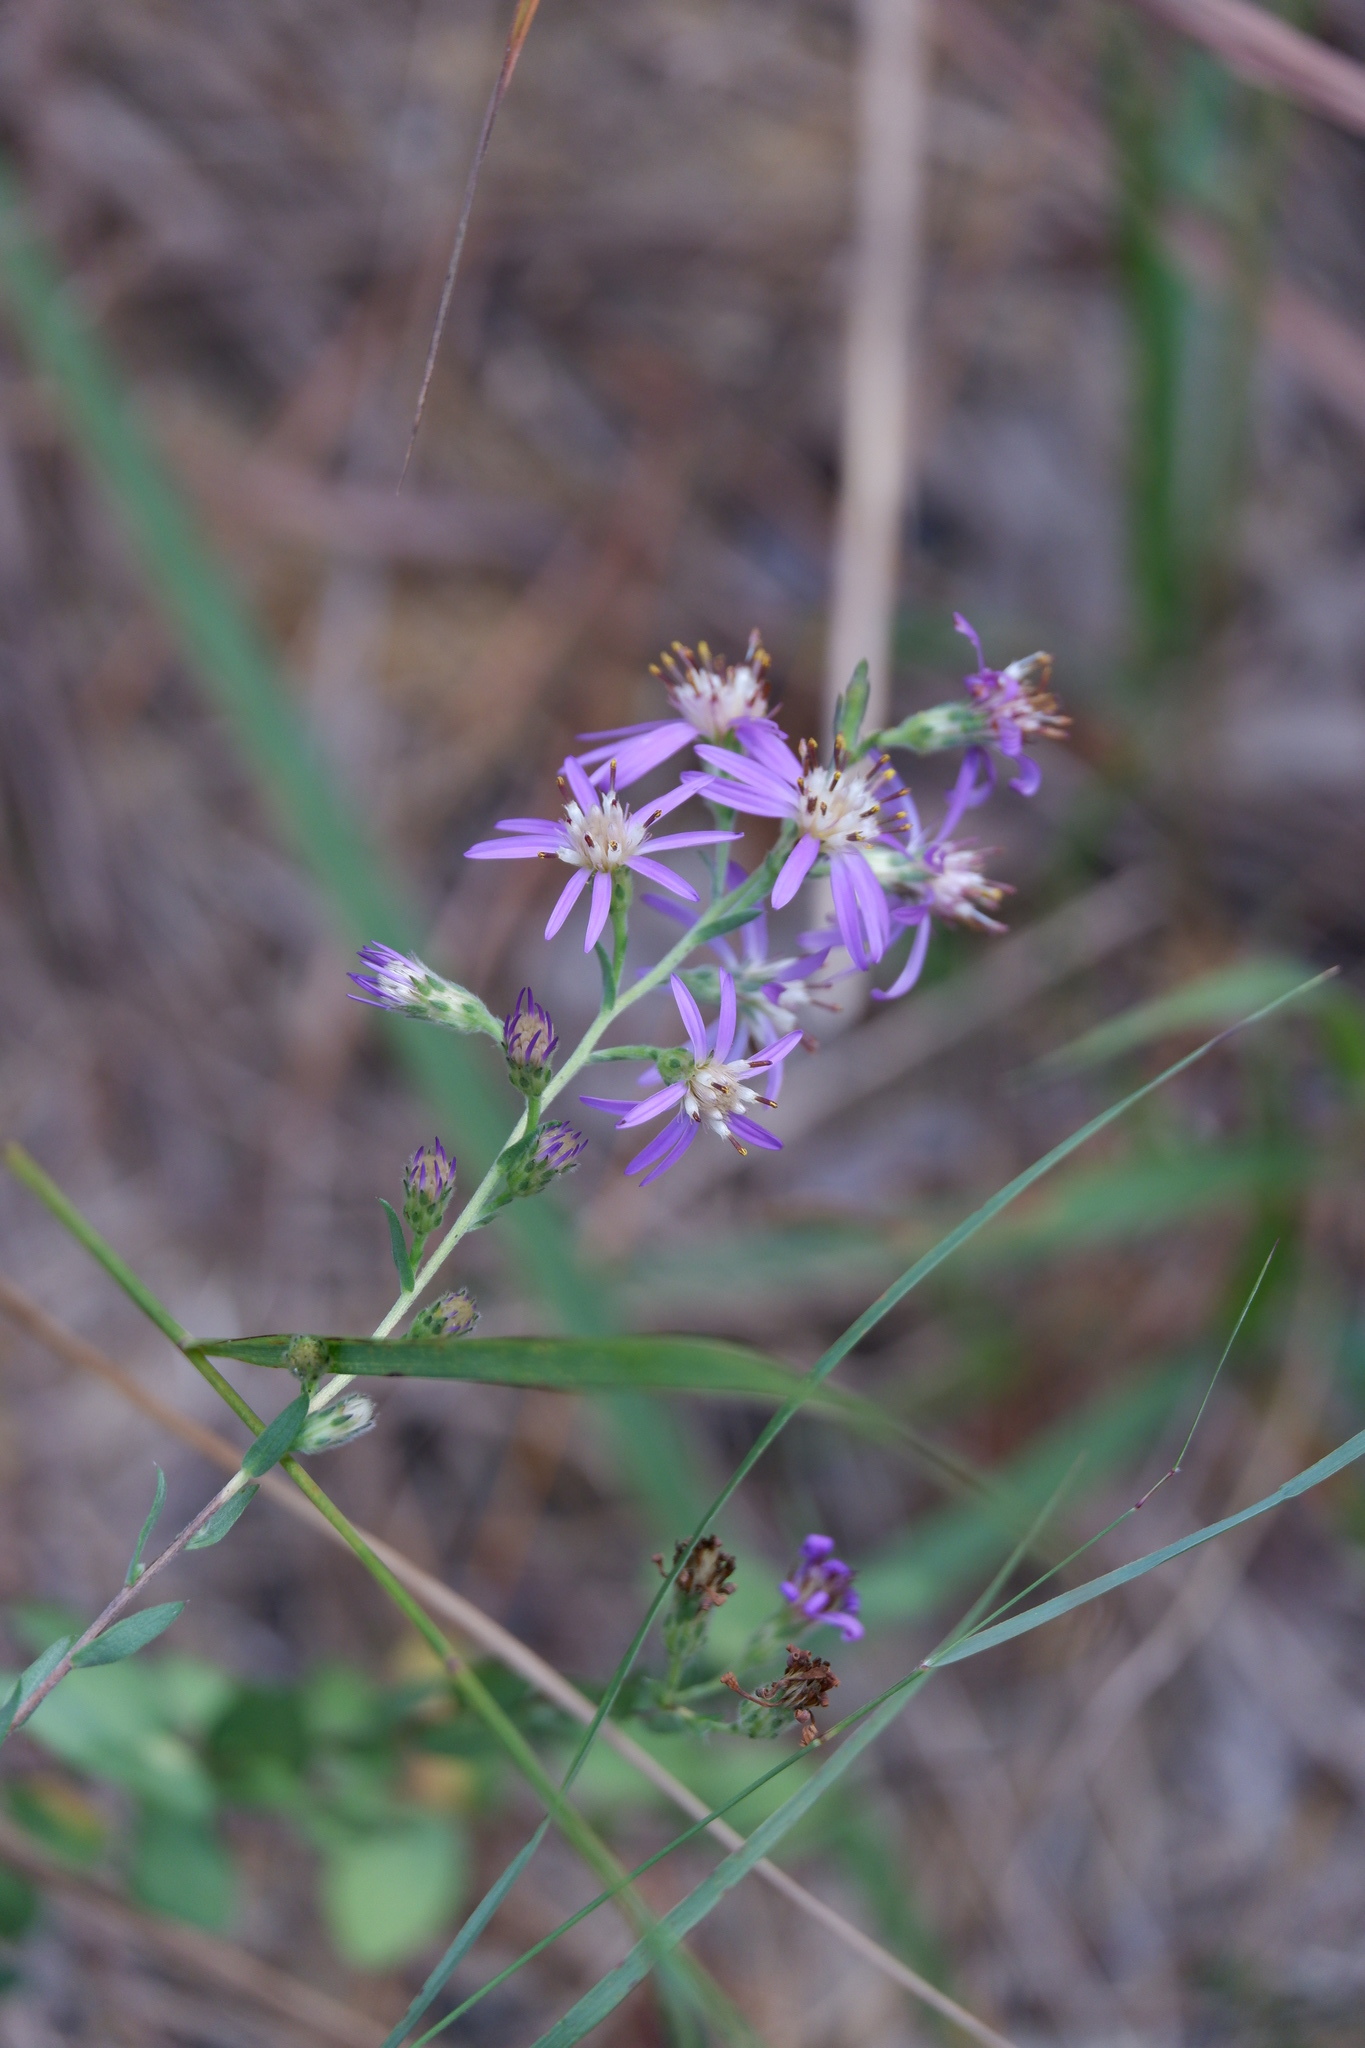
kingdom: Plantae
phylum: Tracheophyta
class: Magnoliopsida
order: Asterales
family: Asteraceae
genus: Symphyotrichum
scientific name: Symphyotrichum concolor
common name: Eastern silver aster
